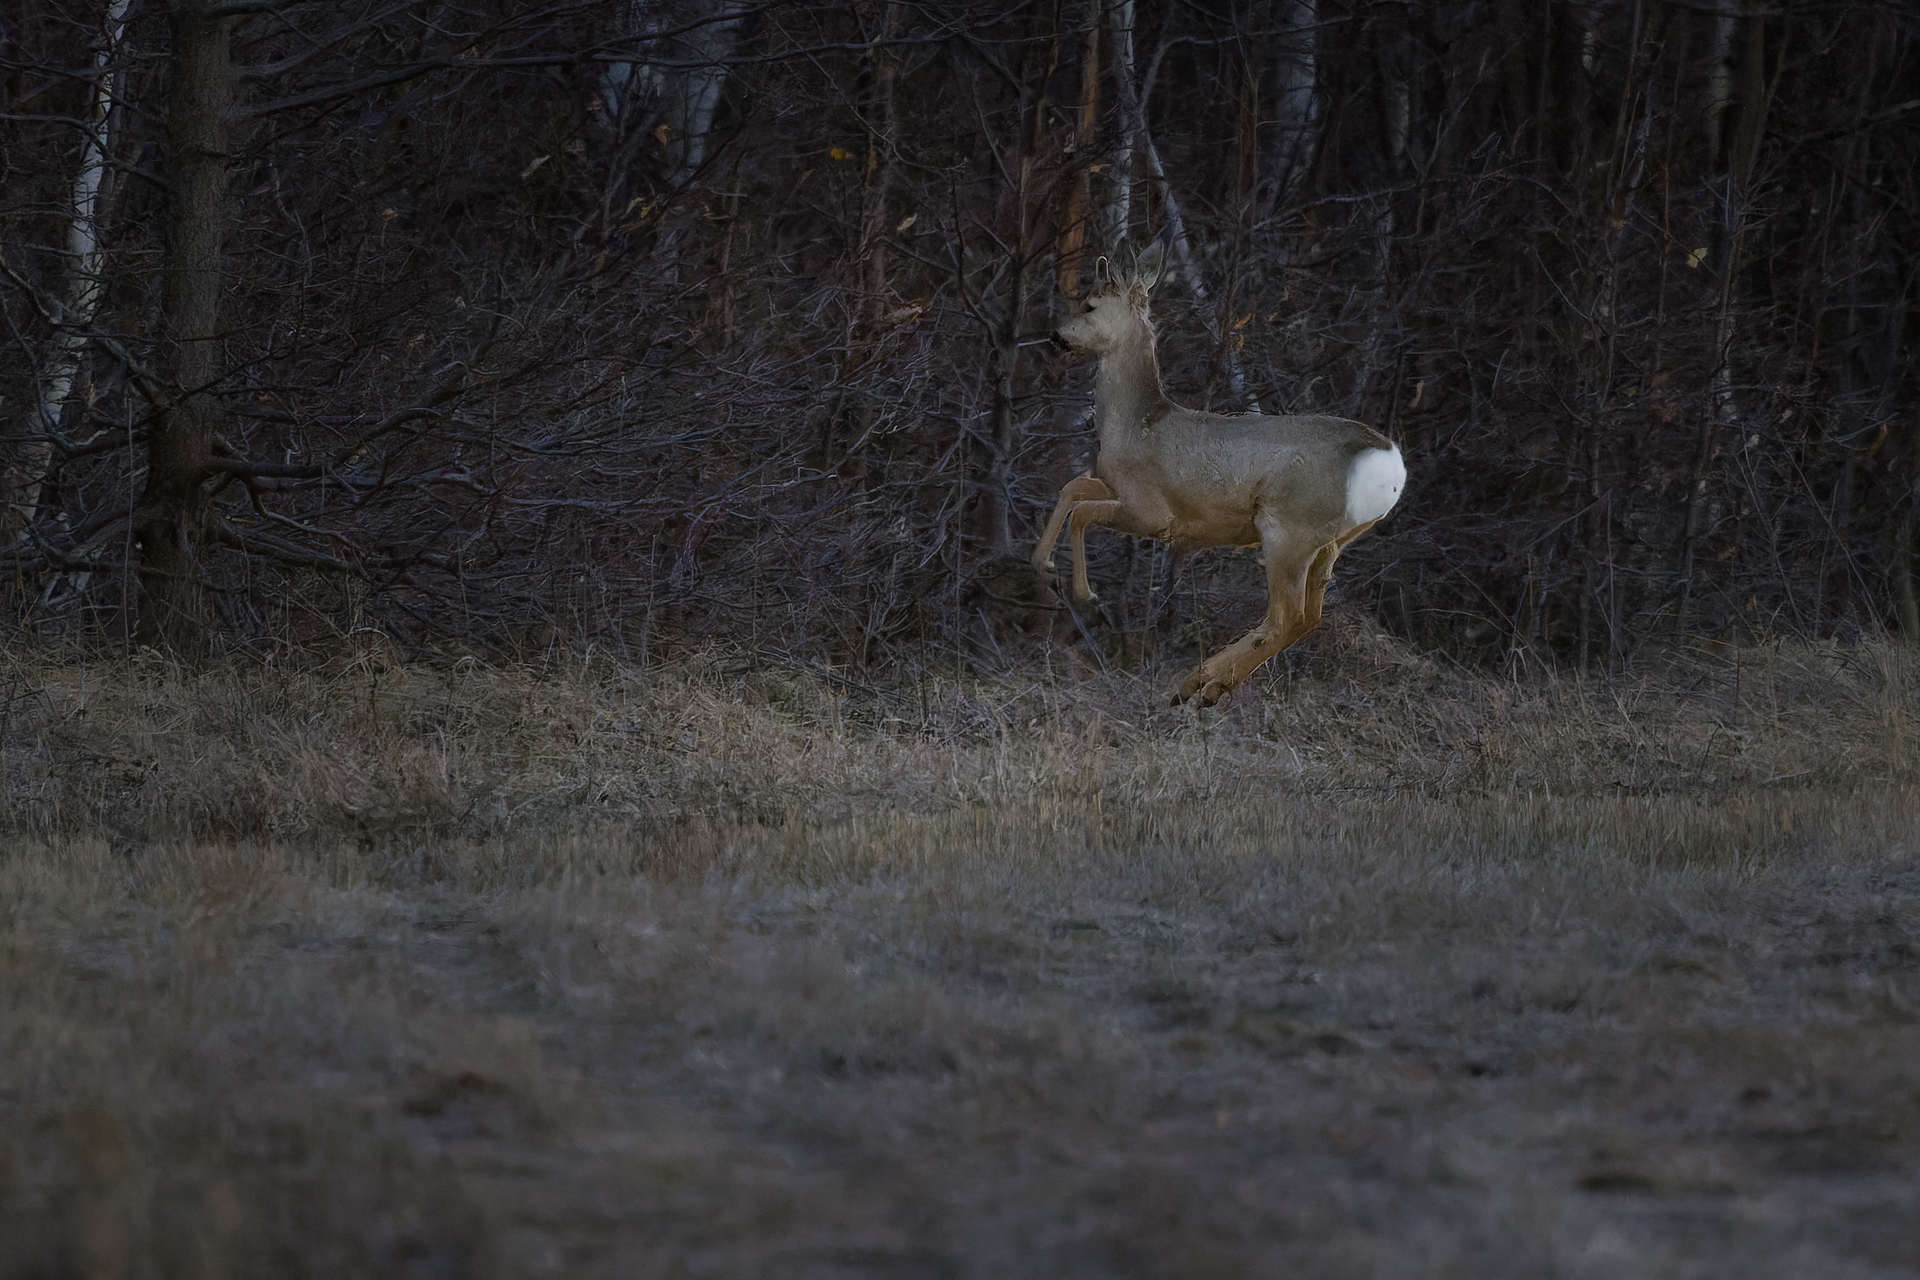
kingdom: Animalia
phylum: Chordata
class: Mammalia
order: Artiodactyla
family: Cervidae
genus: Capreolus
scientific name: Capreolus pygargus
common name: Siberian roe
